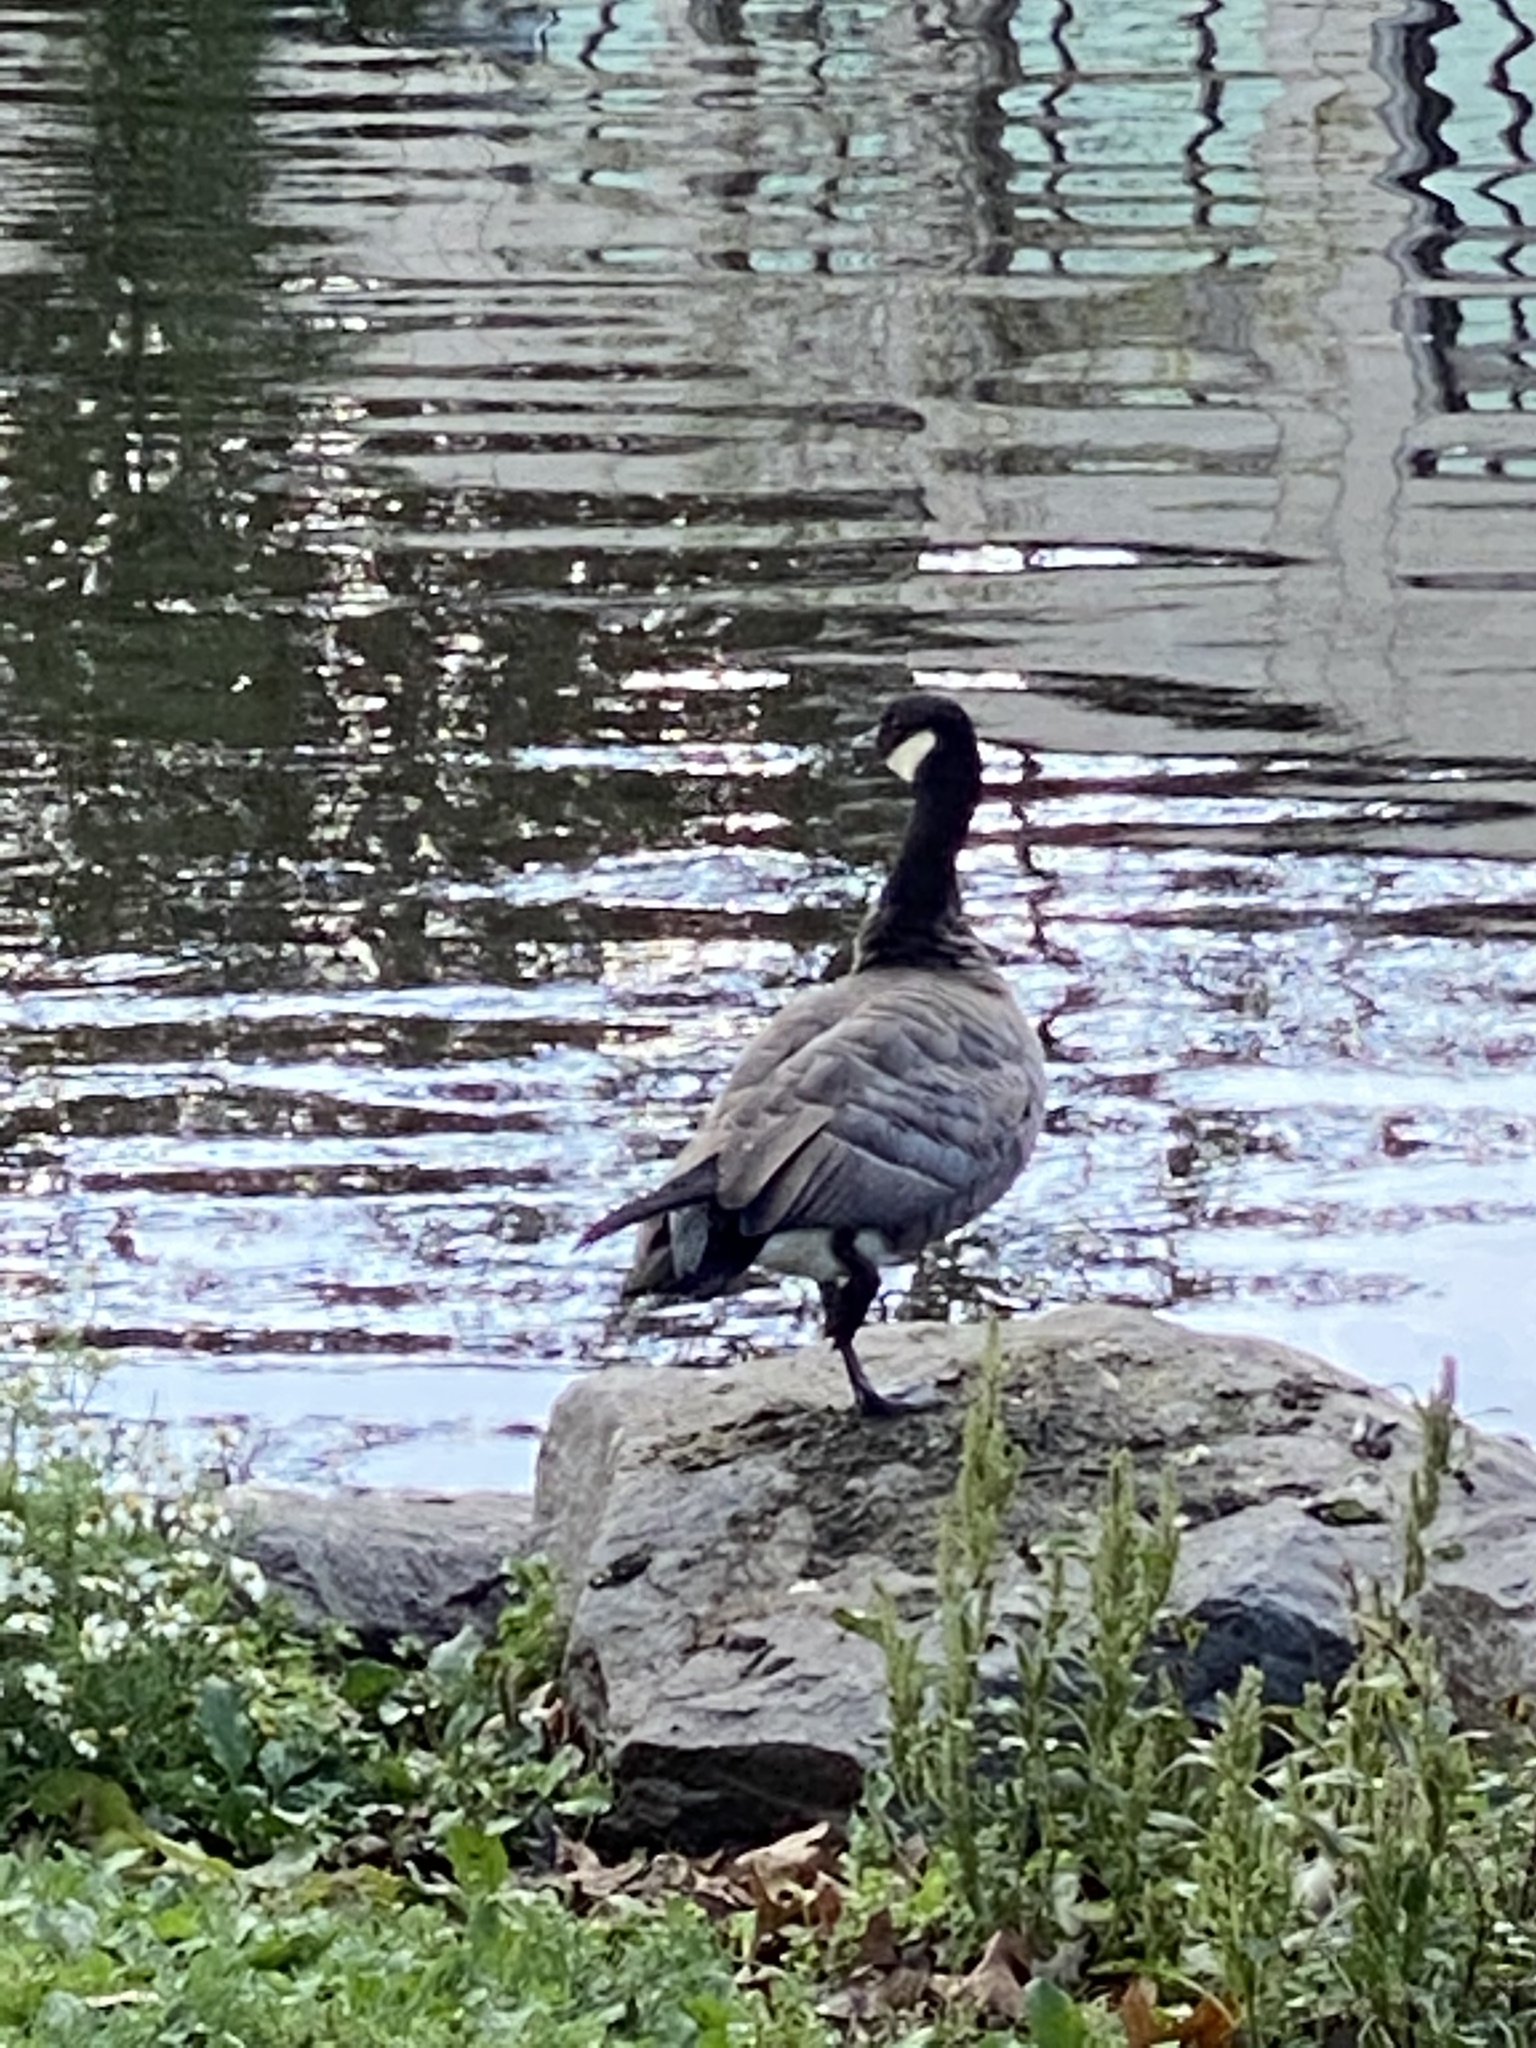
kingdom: Animalia
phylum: Chordata
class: Aves
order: Anseriformes
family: Anatidae
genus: Branta
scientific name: Branta hutchinsii
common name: Cackling goose
